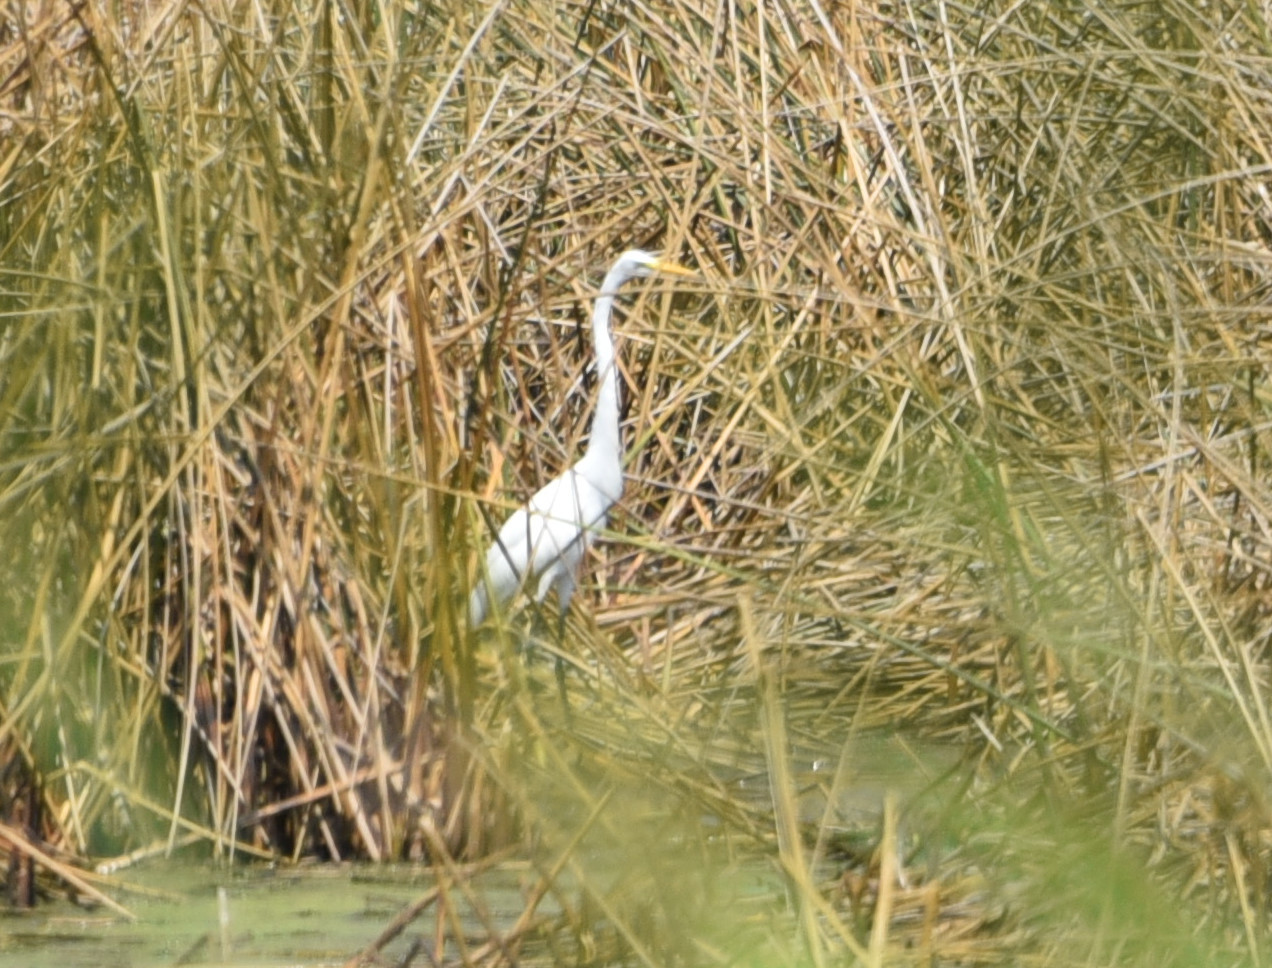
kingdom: Animalia
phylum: Chordata
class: Aves
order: Pelecaniformes
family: Ardeidae
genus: Ardea
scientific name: Ardea alba
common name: Great egret
